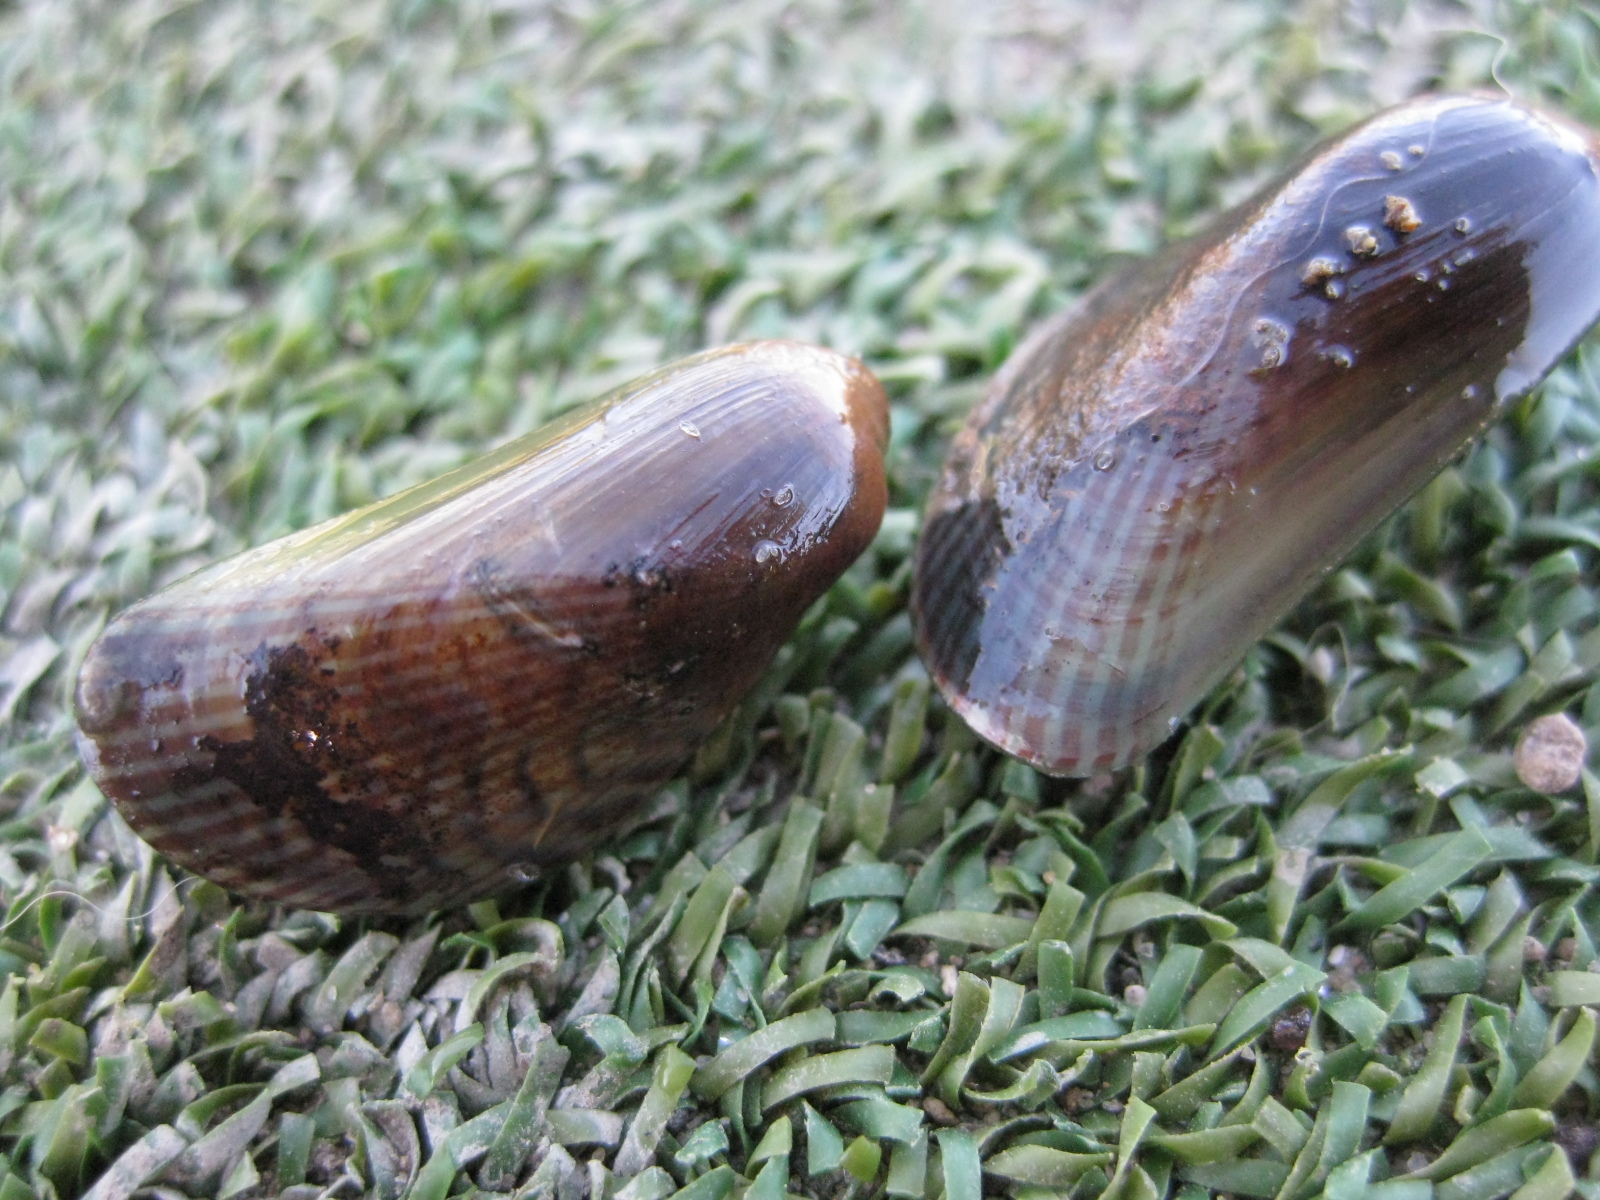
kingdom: Animalia
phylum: Mollusca
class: Bivalvia
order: Mytilida
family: Mytilidae
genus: Arcuatula
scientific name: Arcuatula senhousia
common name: Asian mussel
